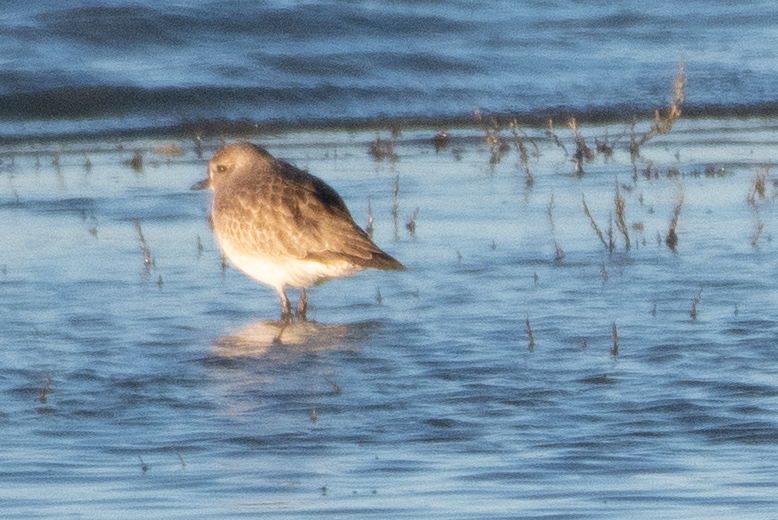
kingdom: Animalia
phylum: Chordata
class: Aves
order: Charadriiformes
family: Charadriidae
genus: Pluvialis
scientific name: Pluvialis squatarola
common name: Grey plover
